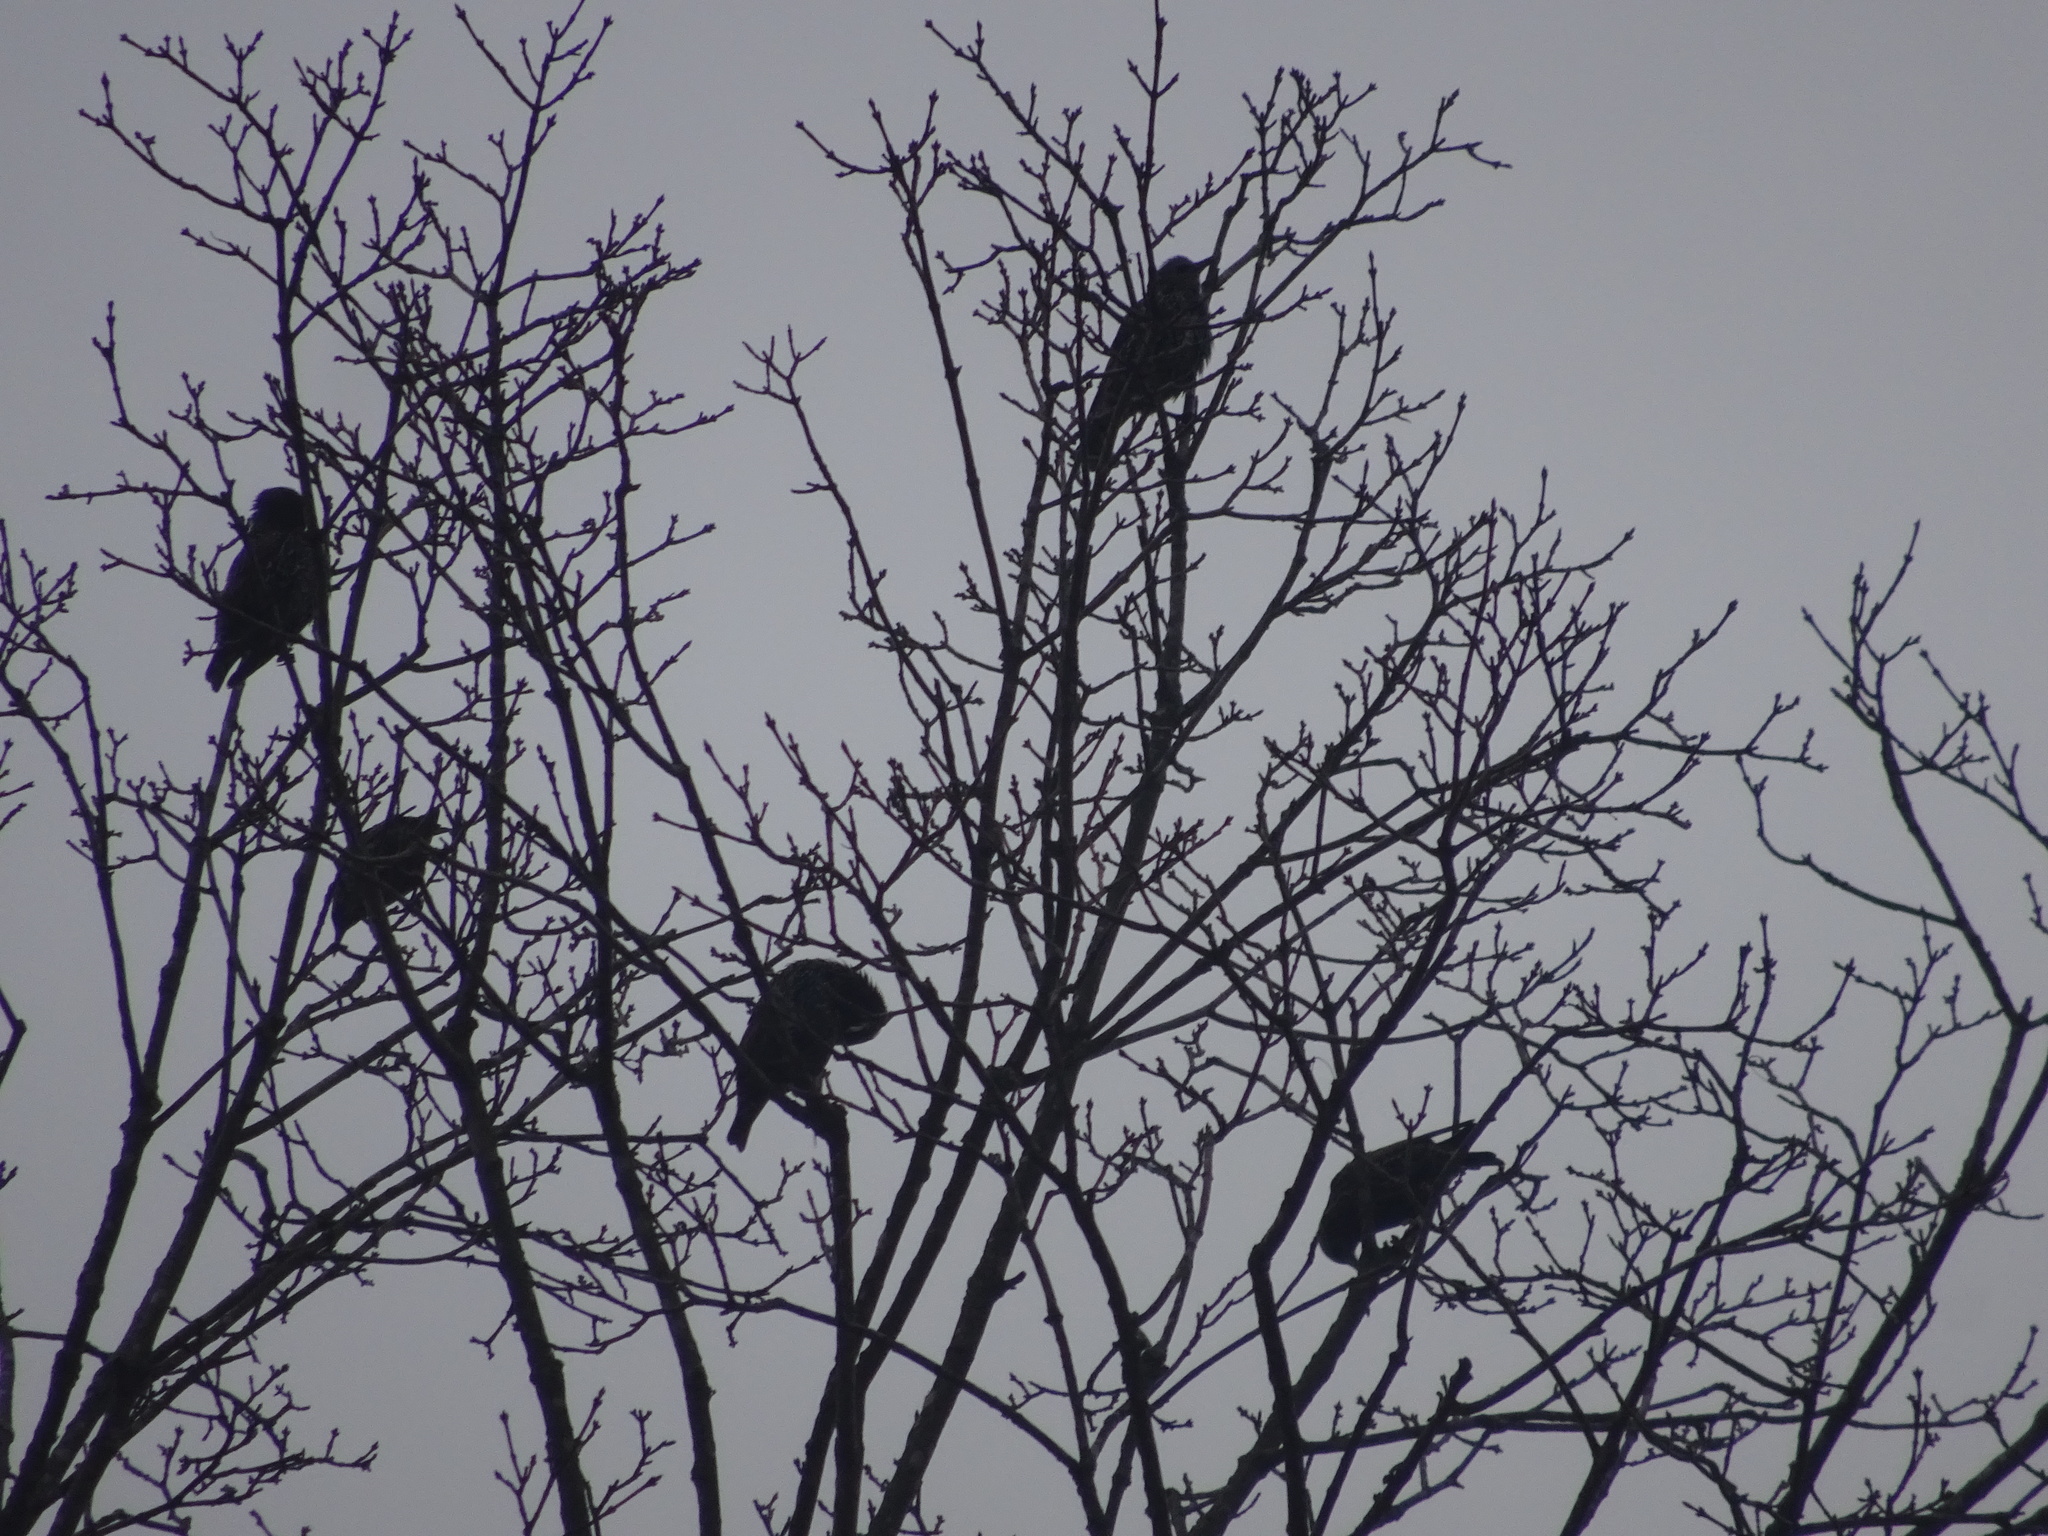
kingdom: Animalia
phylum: Chordata
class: Aves
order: Passeriformes
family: Sturnidae
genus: Sturnus
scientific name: Sturnus vulgaris
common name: Common starling
